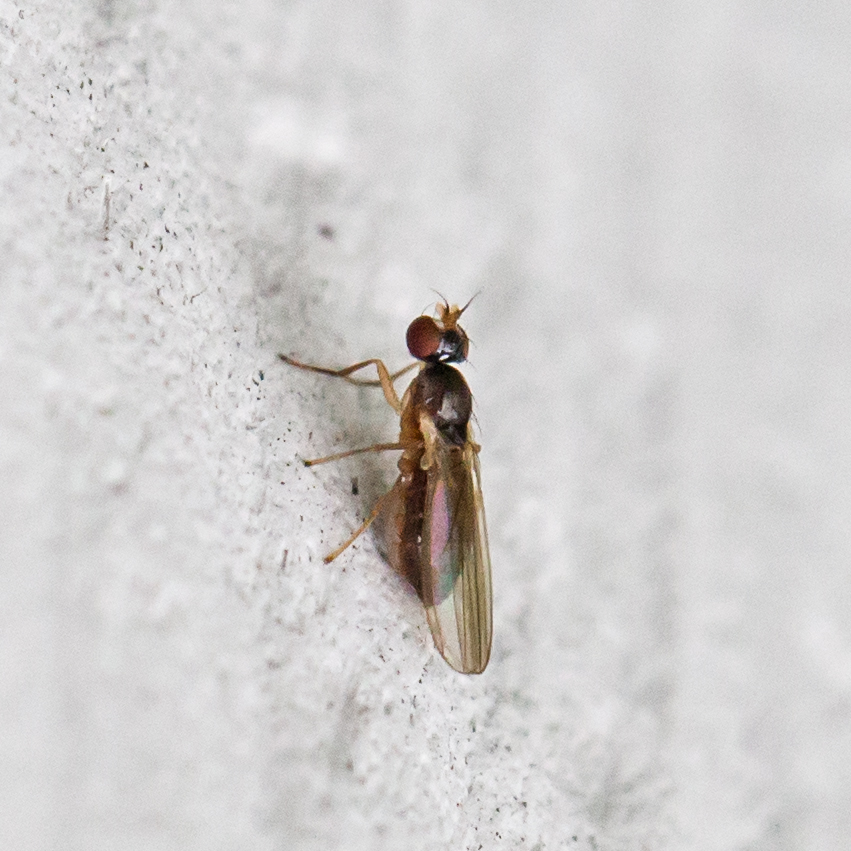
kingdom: Animalia
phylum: Arthropoda
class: Insecta
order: Diptera
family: Anthomyzidae
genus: Mumetopia
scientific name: Mumetopia occipitalis
